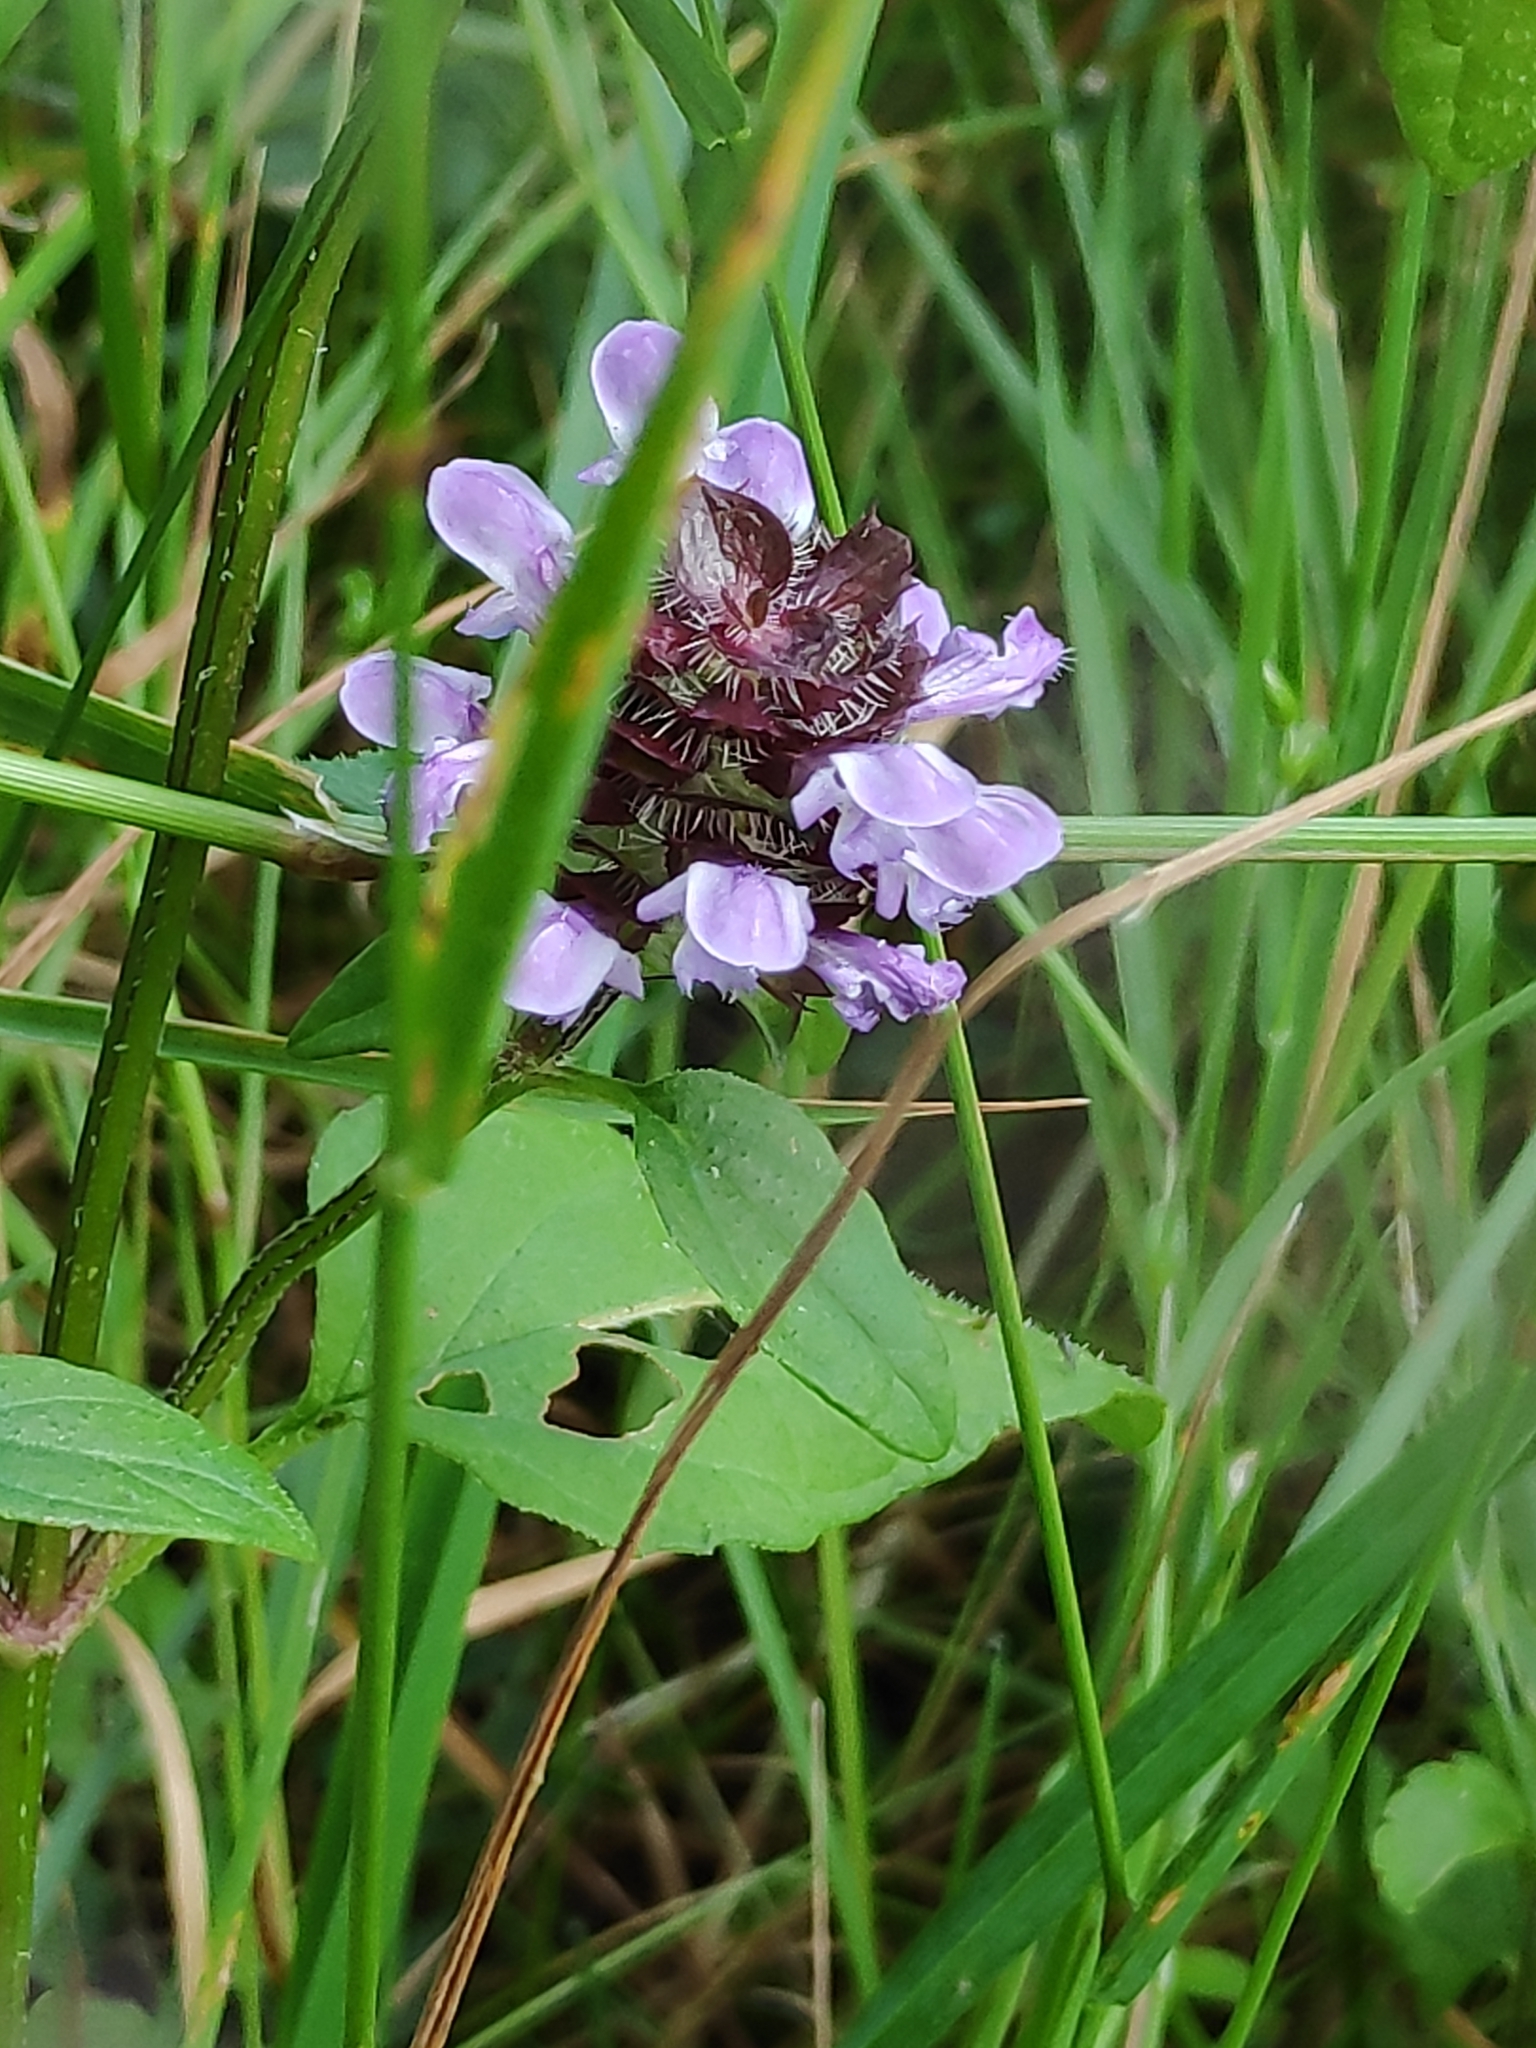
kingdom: Plantae
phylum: Tracheophyta
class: Magnoliopsida
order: Lamiales
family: Lamiaceae
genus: Prunella
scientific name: Prunella vulgaris
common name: Heal-all
